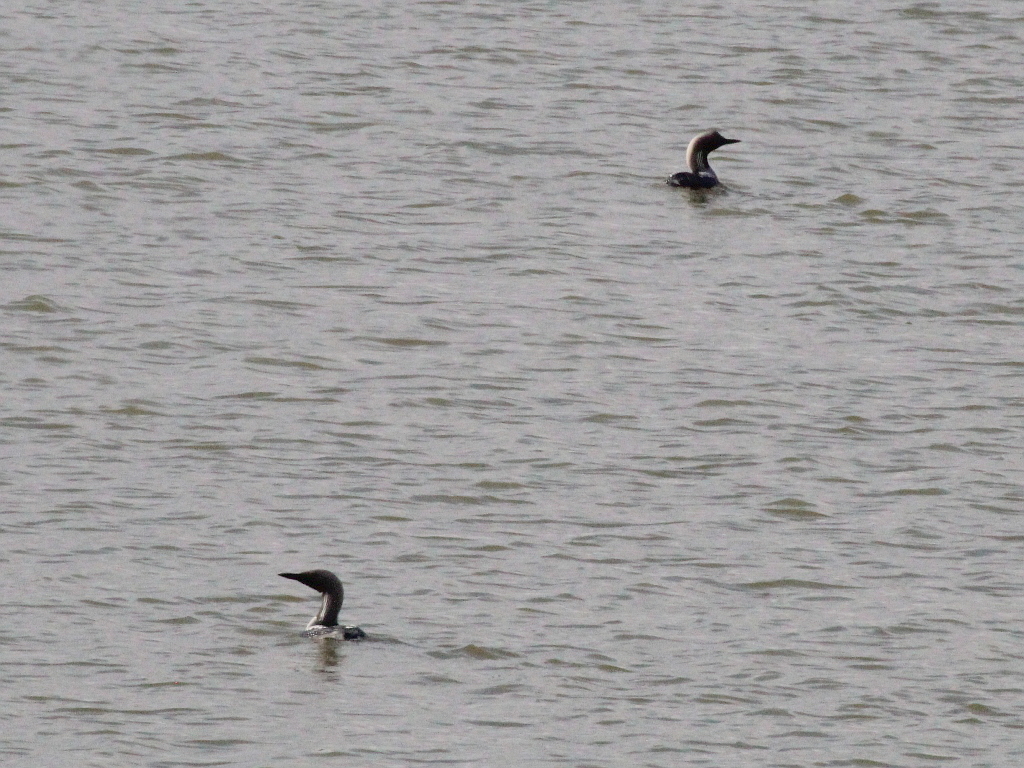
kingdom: Animalia
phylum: Chordata
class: Aves
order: Gaviiformes
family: Gaviidae
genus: Gavia
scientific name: Gavia arctica
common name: Black-throated loon
